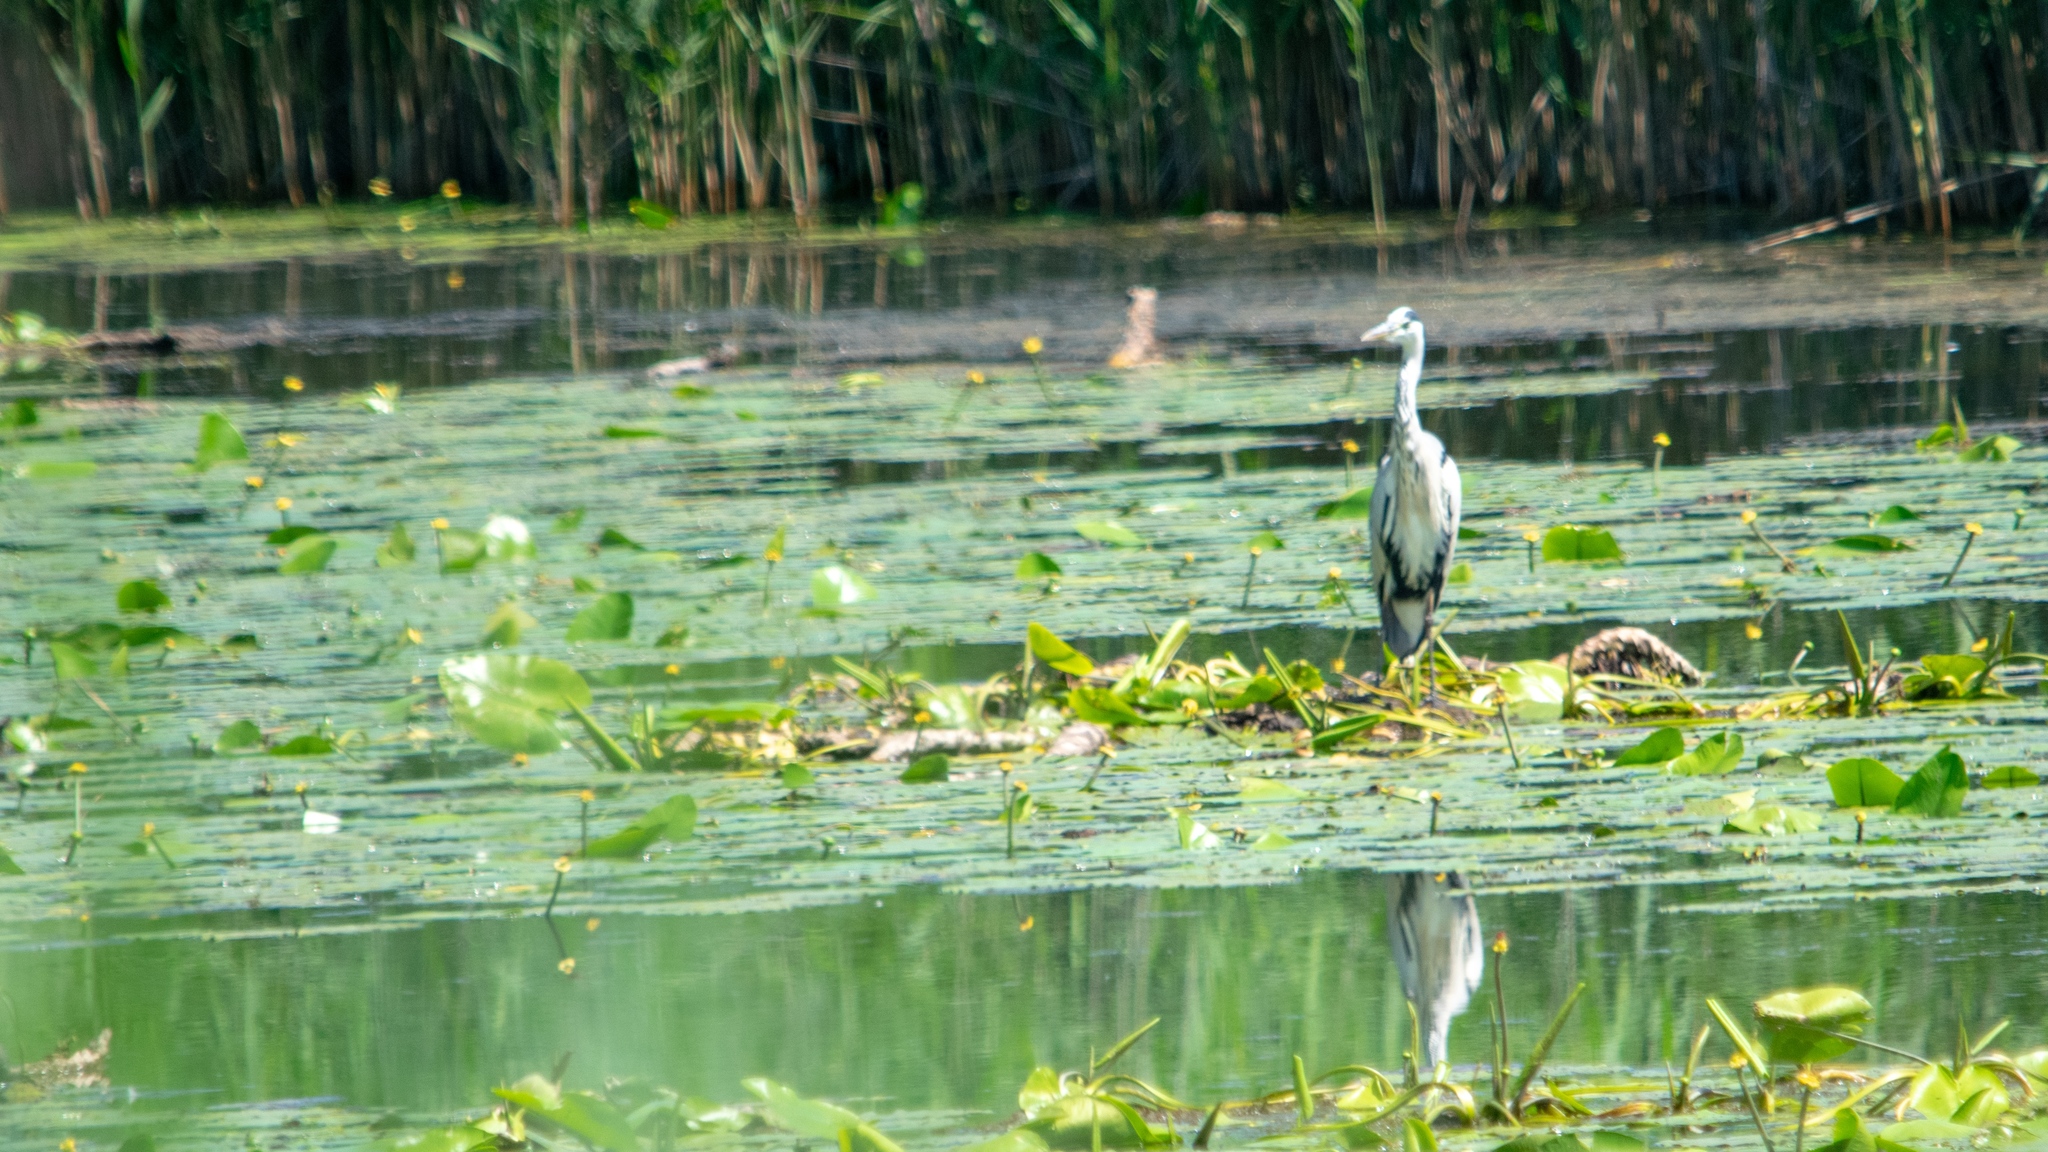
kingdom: Animalia
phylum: Chordata
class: Aves
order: Pelecaniformes
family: Ardeidae
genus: Ardea
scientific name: Ardea cinerea
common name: Grey heron
